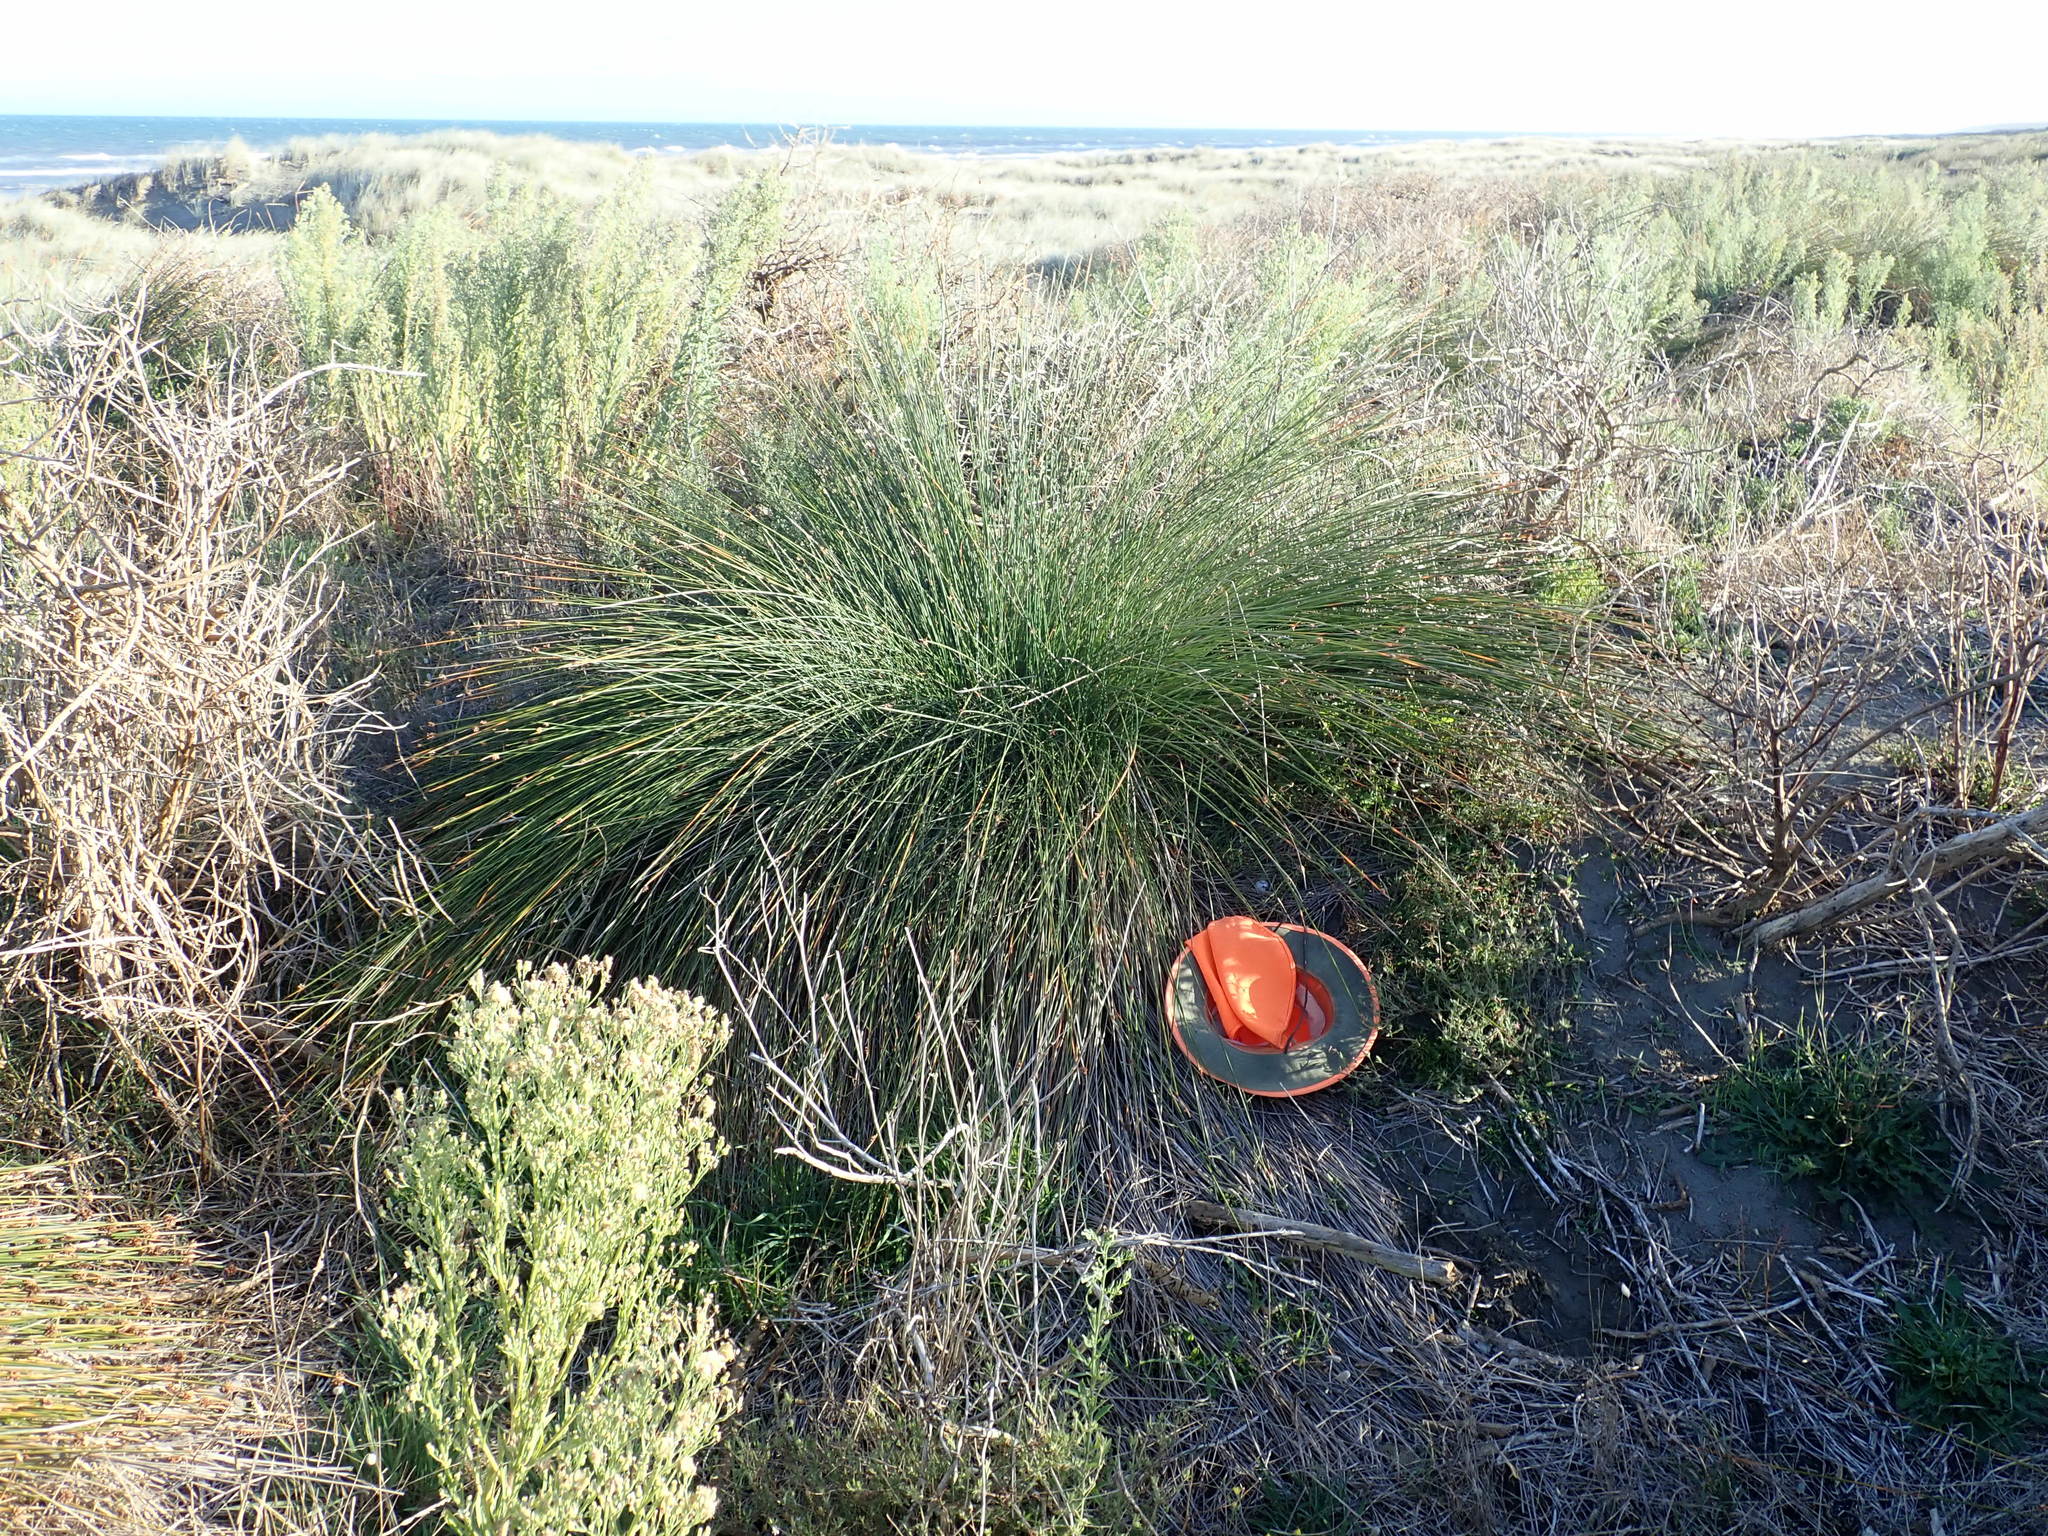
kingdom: Plantae
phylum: Tracheophyta
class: Magnoliopsida
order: Caryophyllales
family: Caryophyllaceae
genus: Silene
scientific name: Silene gallica
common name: Small-flowered catchfly
